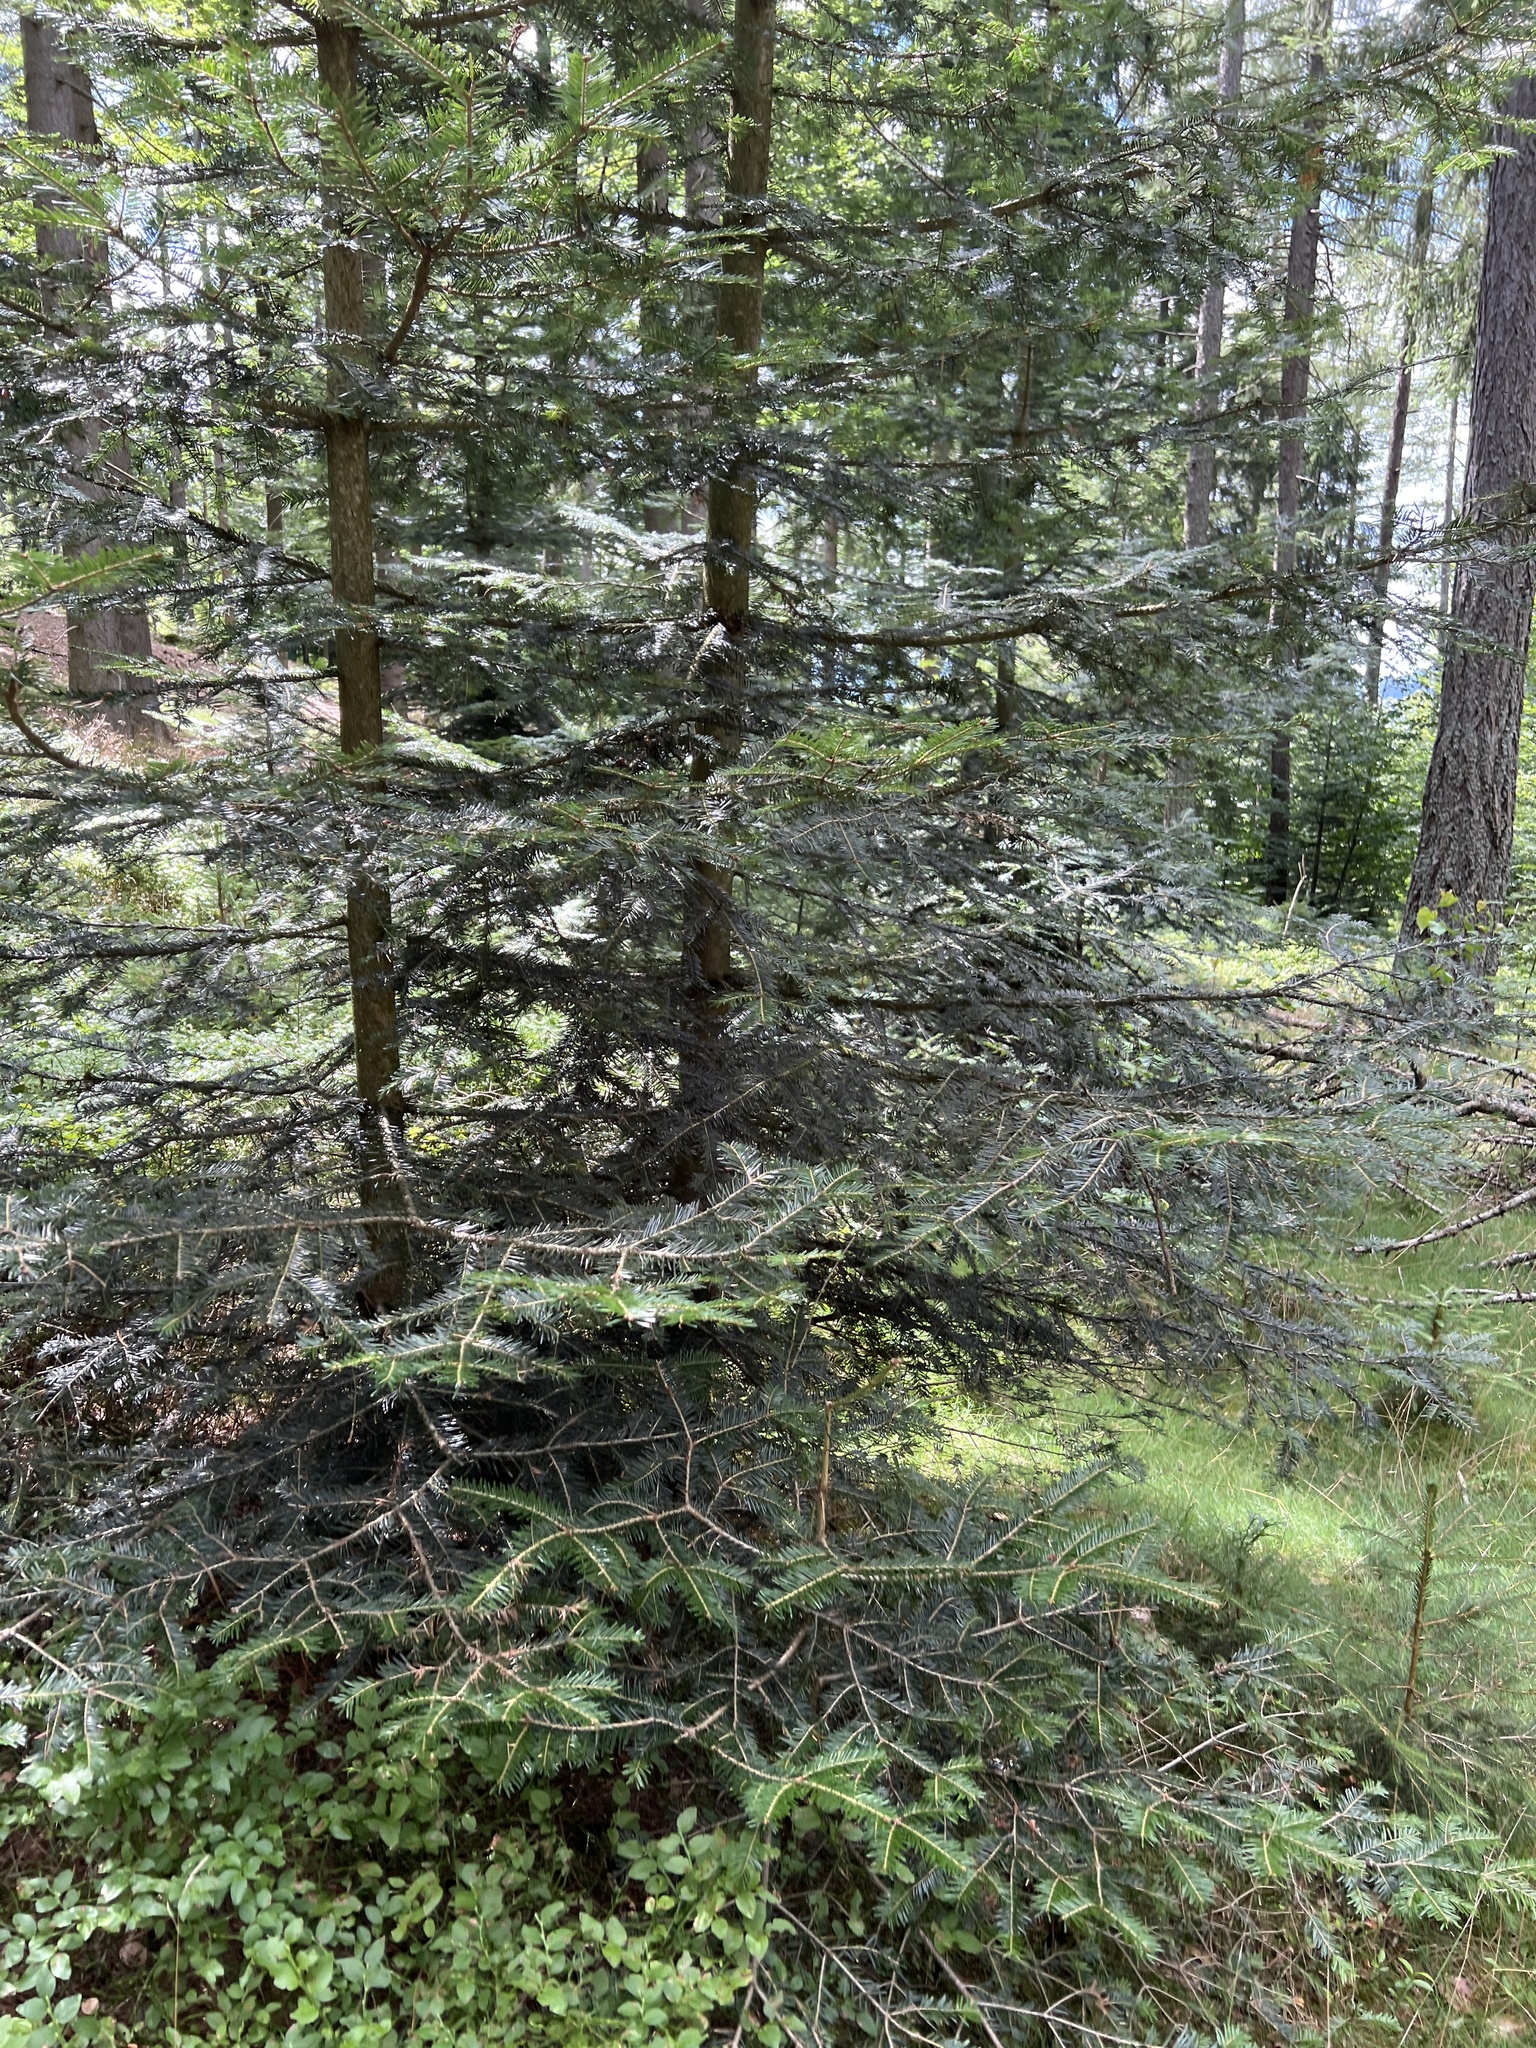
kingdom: Plantae
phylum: Tracheophyta
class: Pinopsida
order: Pinales
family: Pinaceae
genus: Abies
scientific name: Abies alba
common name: Silver fir
